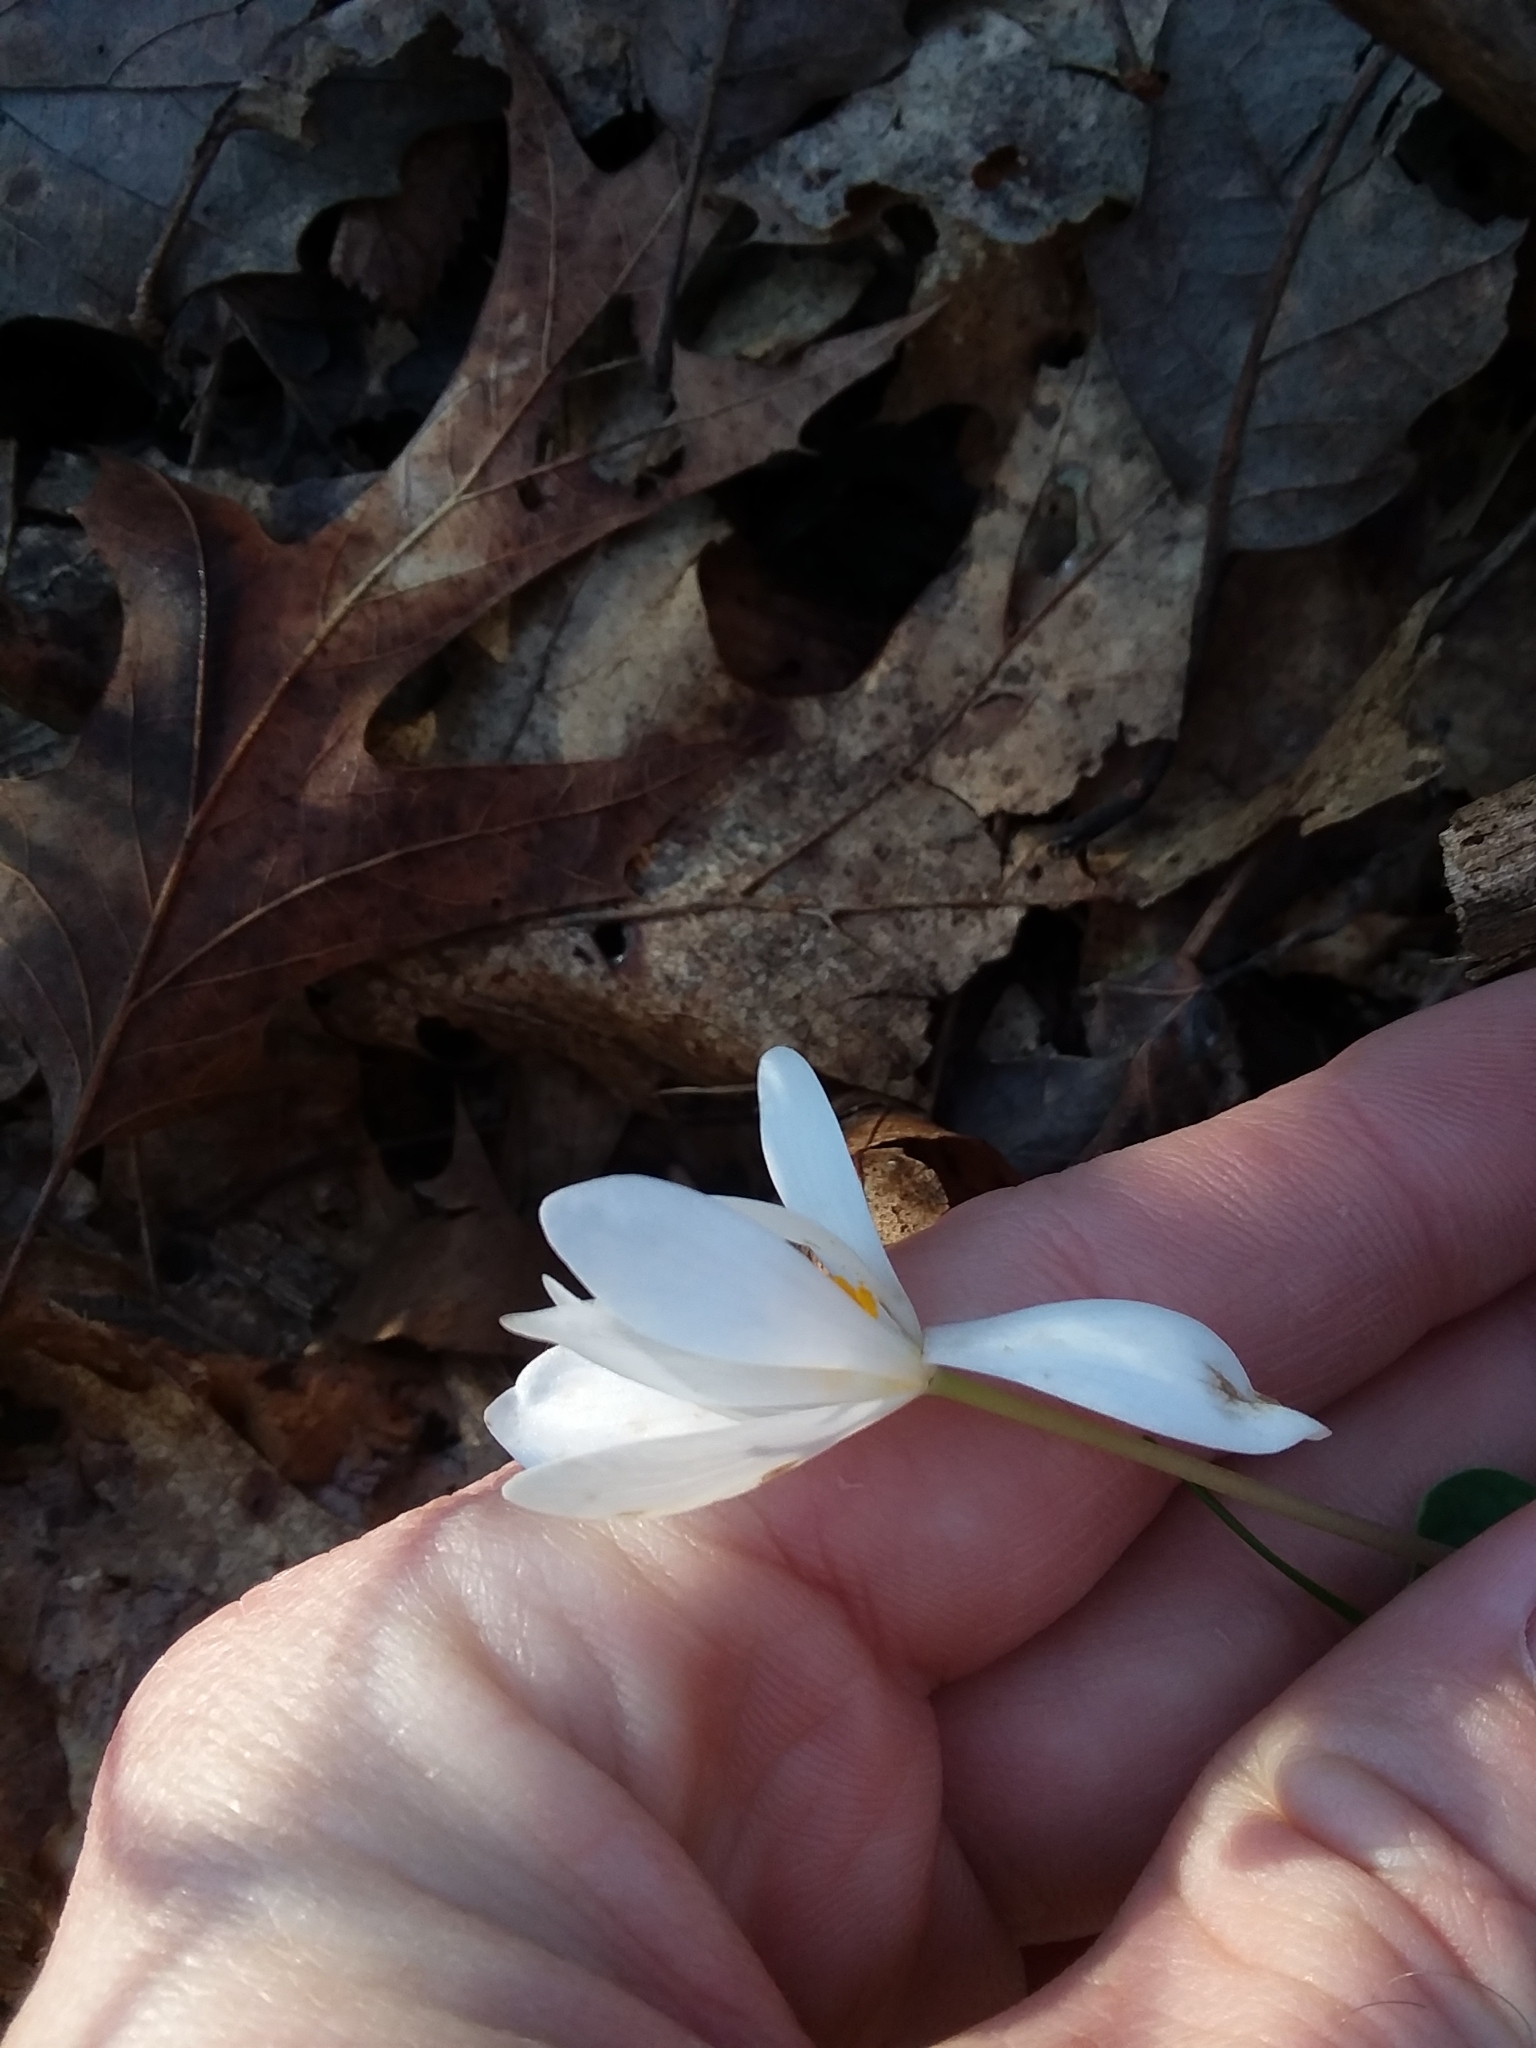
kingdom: Plantae
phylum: Tracheophyta
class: Magnoliopsida
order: Ranunculales
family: Papaveraceae
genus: Sanguinaria
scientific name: Sanguinaria canadensis
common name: Bloodroot
